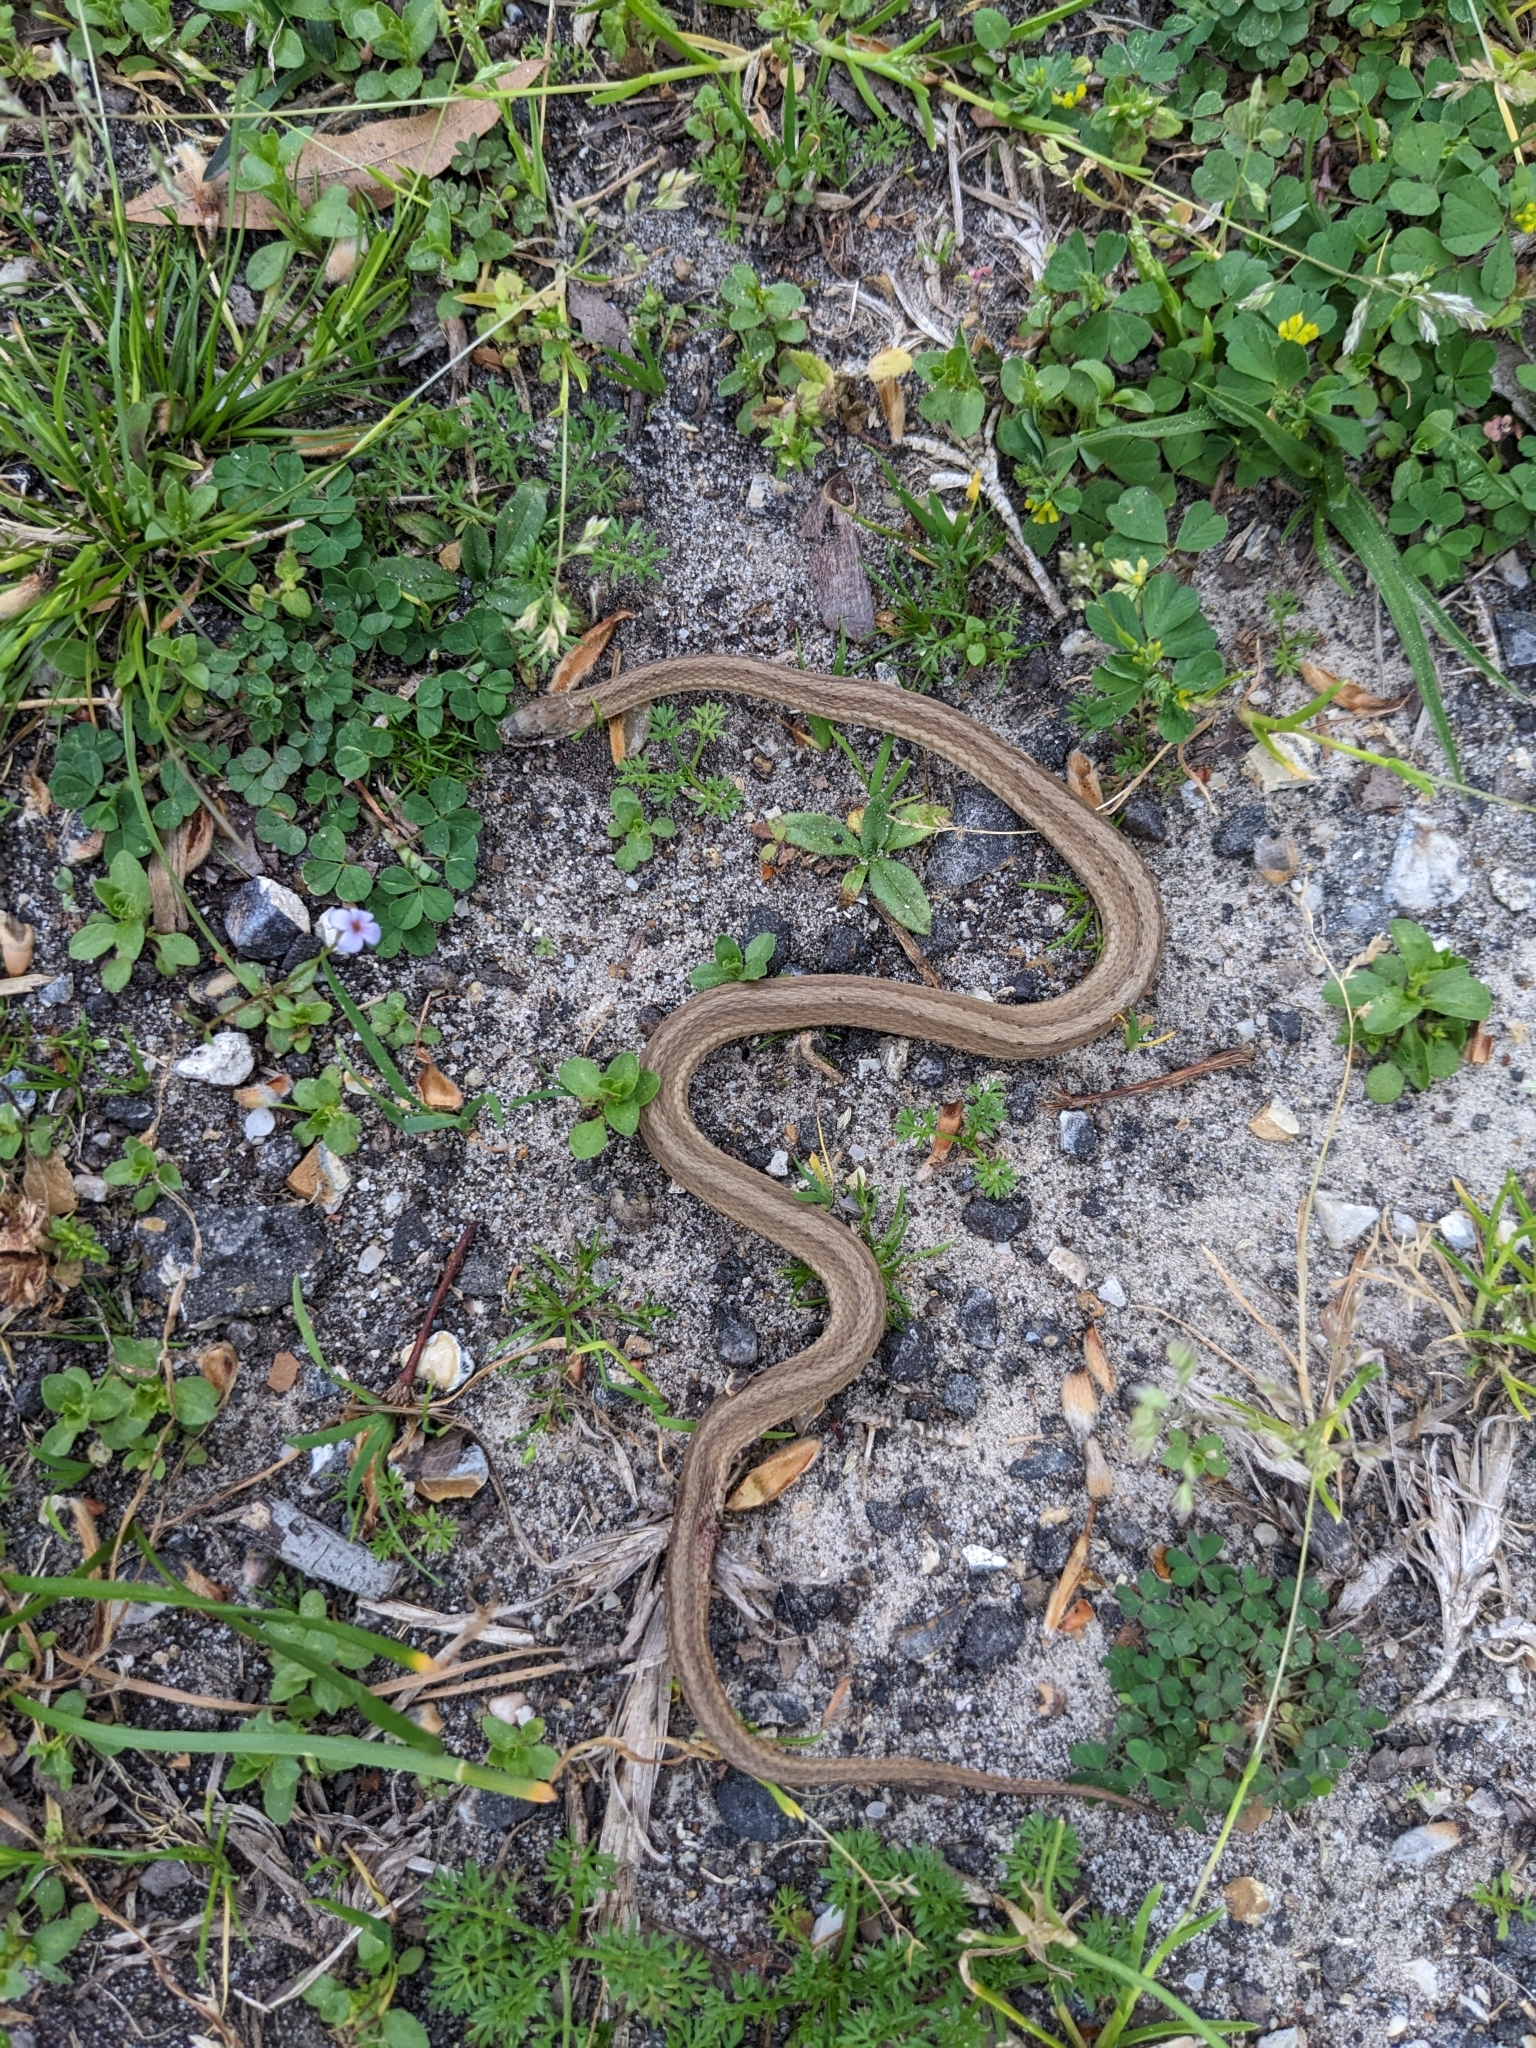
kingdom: Animalia
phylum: Chordata
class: Squamata
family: Colubridae
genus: Storeria
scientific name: Storeria dekayi
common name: (dekay’s) brown snake
